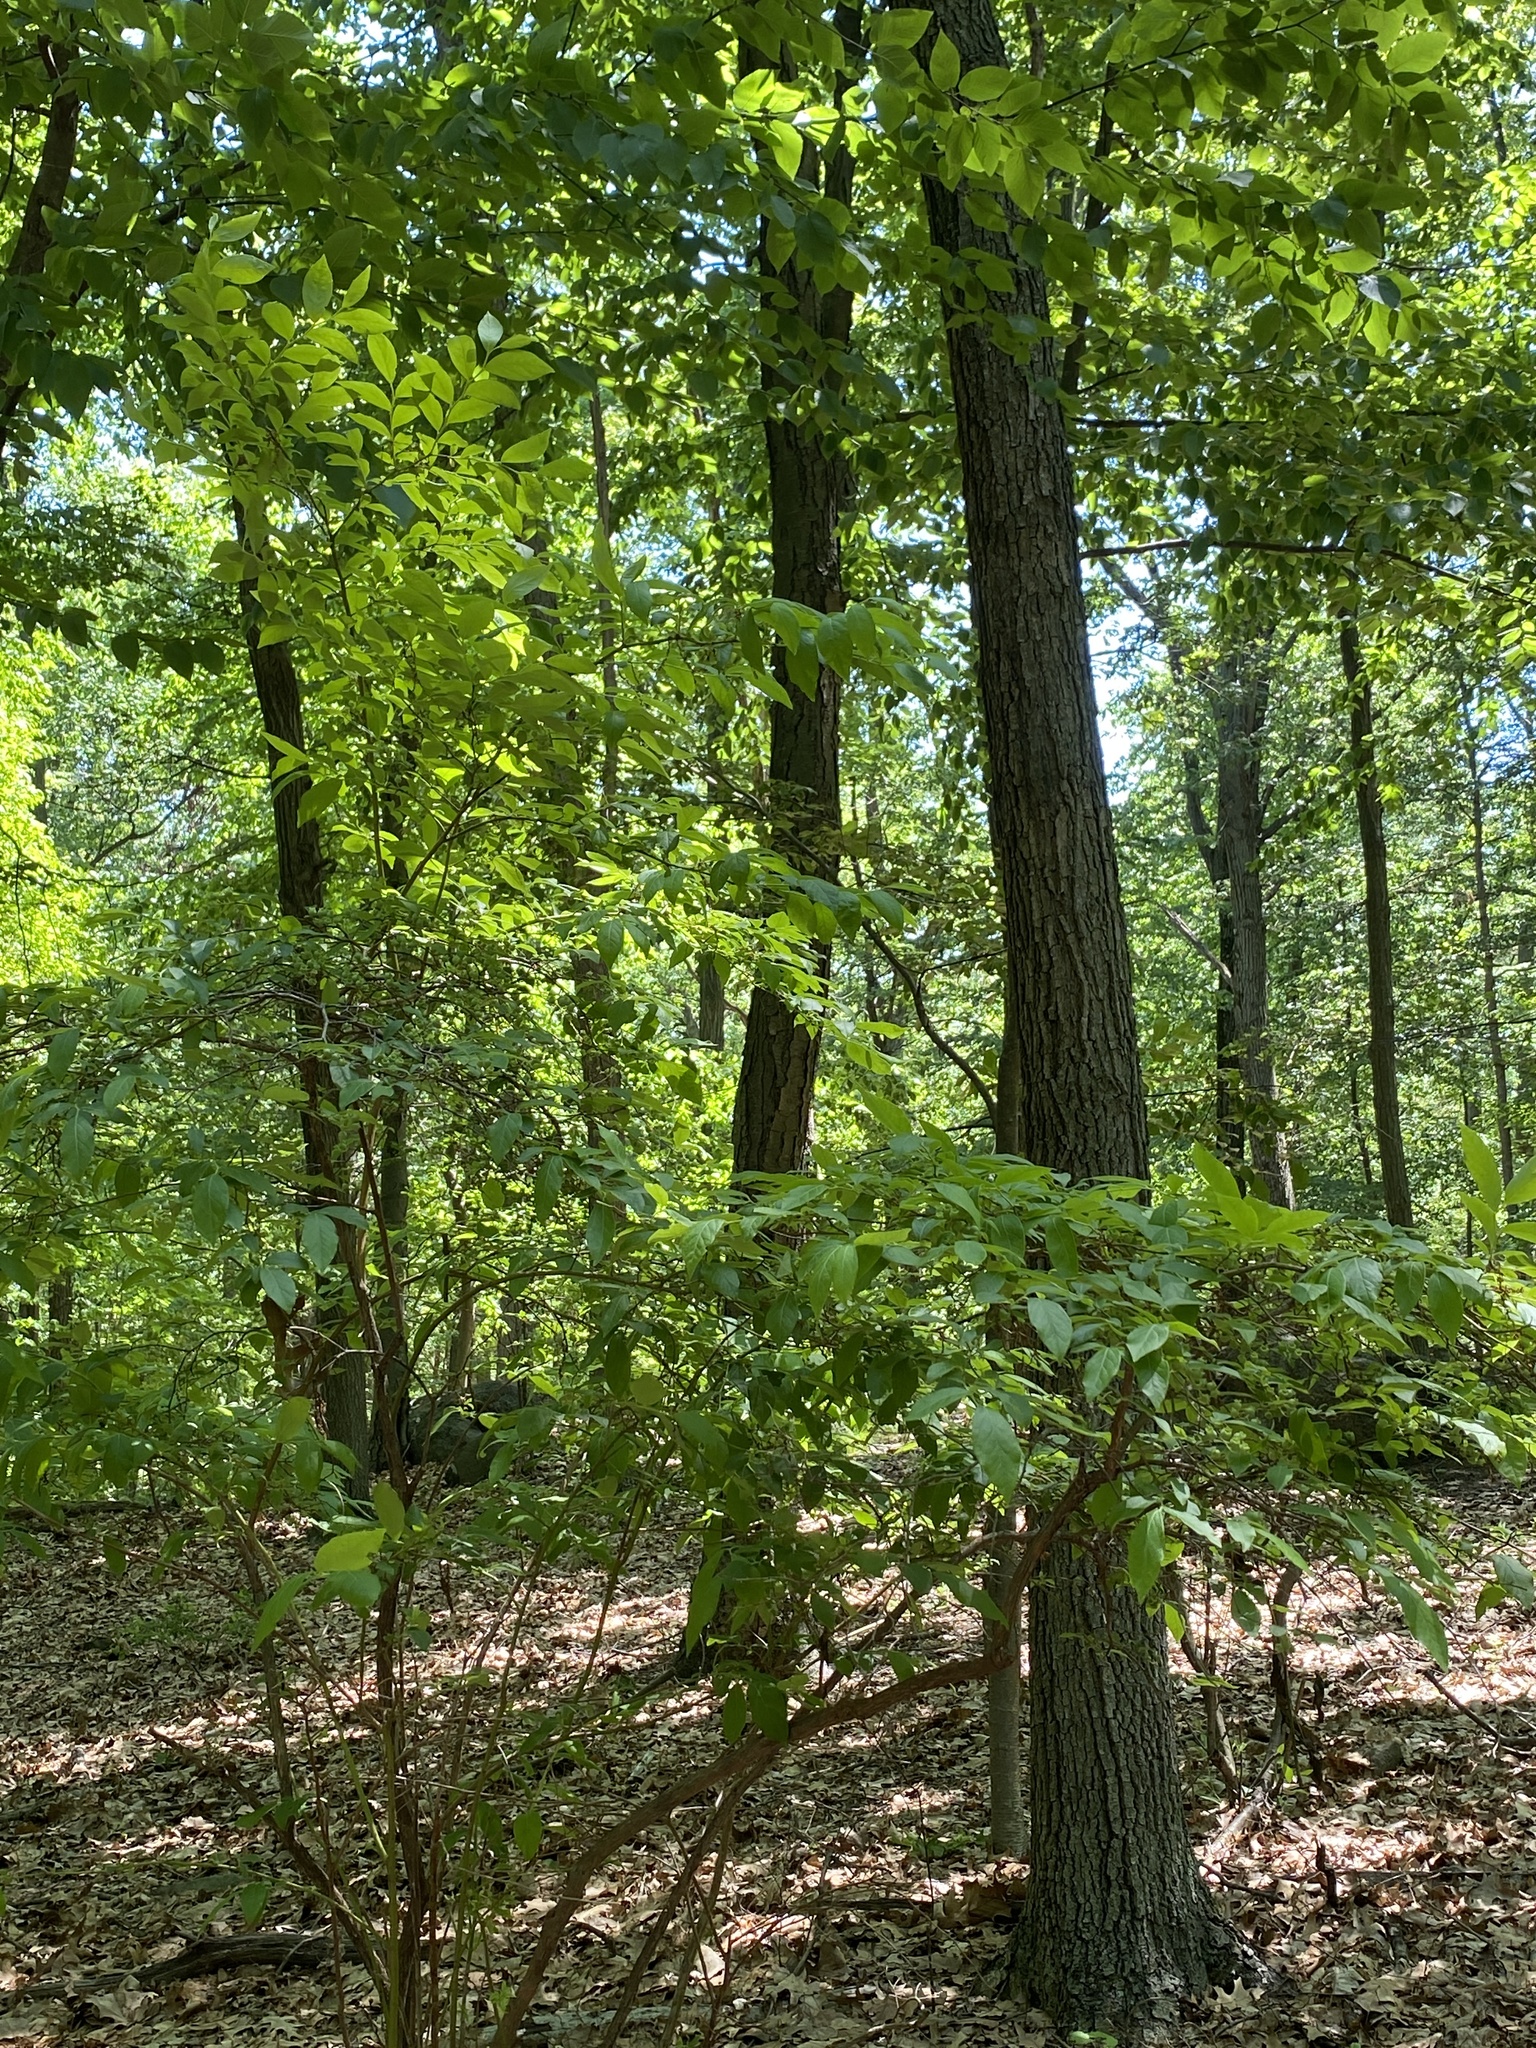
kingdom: Plantae
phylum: Tracheophyta
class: Magnoliopsida
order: Ericales
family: Ericaceae
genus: Vaccinium
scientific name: Vaccinium corymbosum
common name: Blueberry
